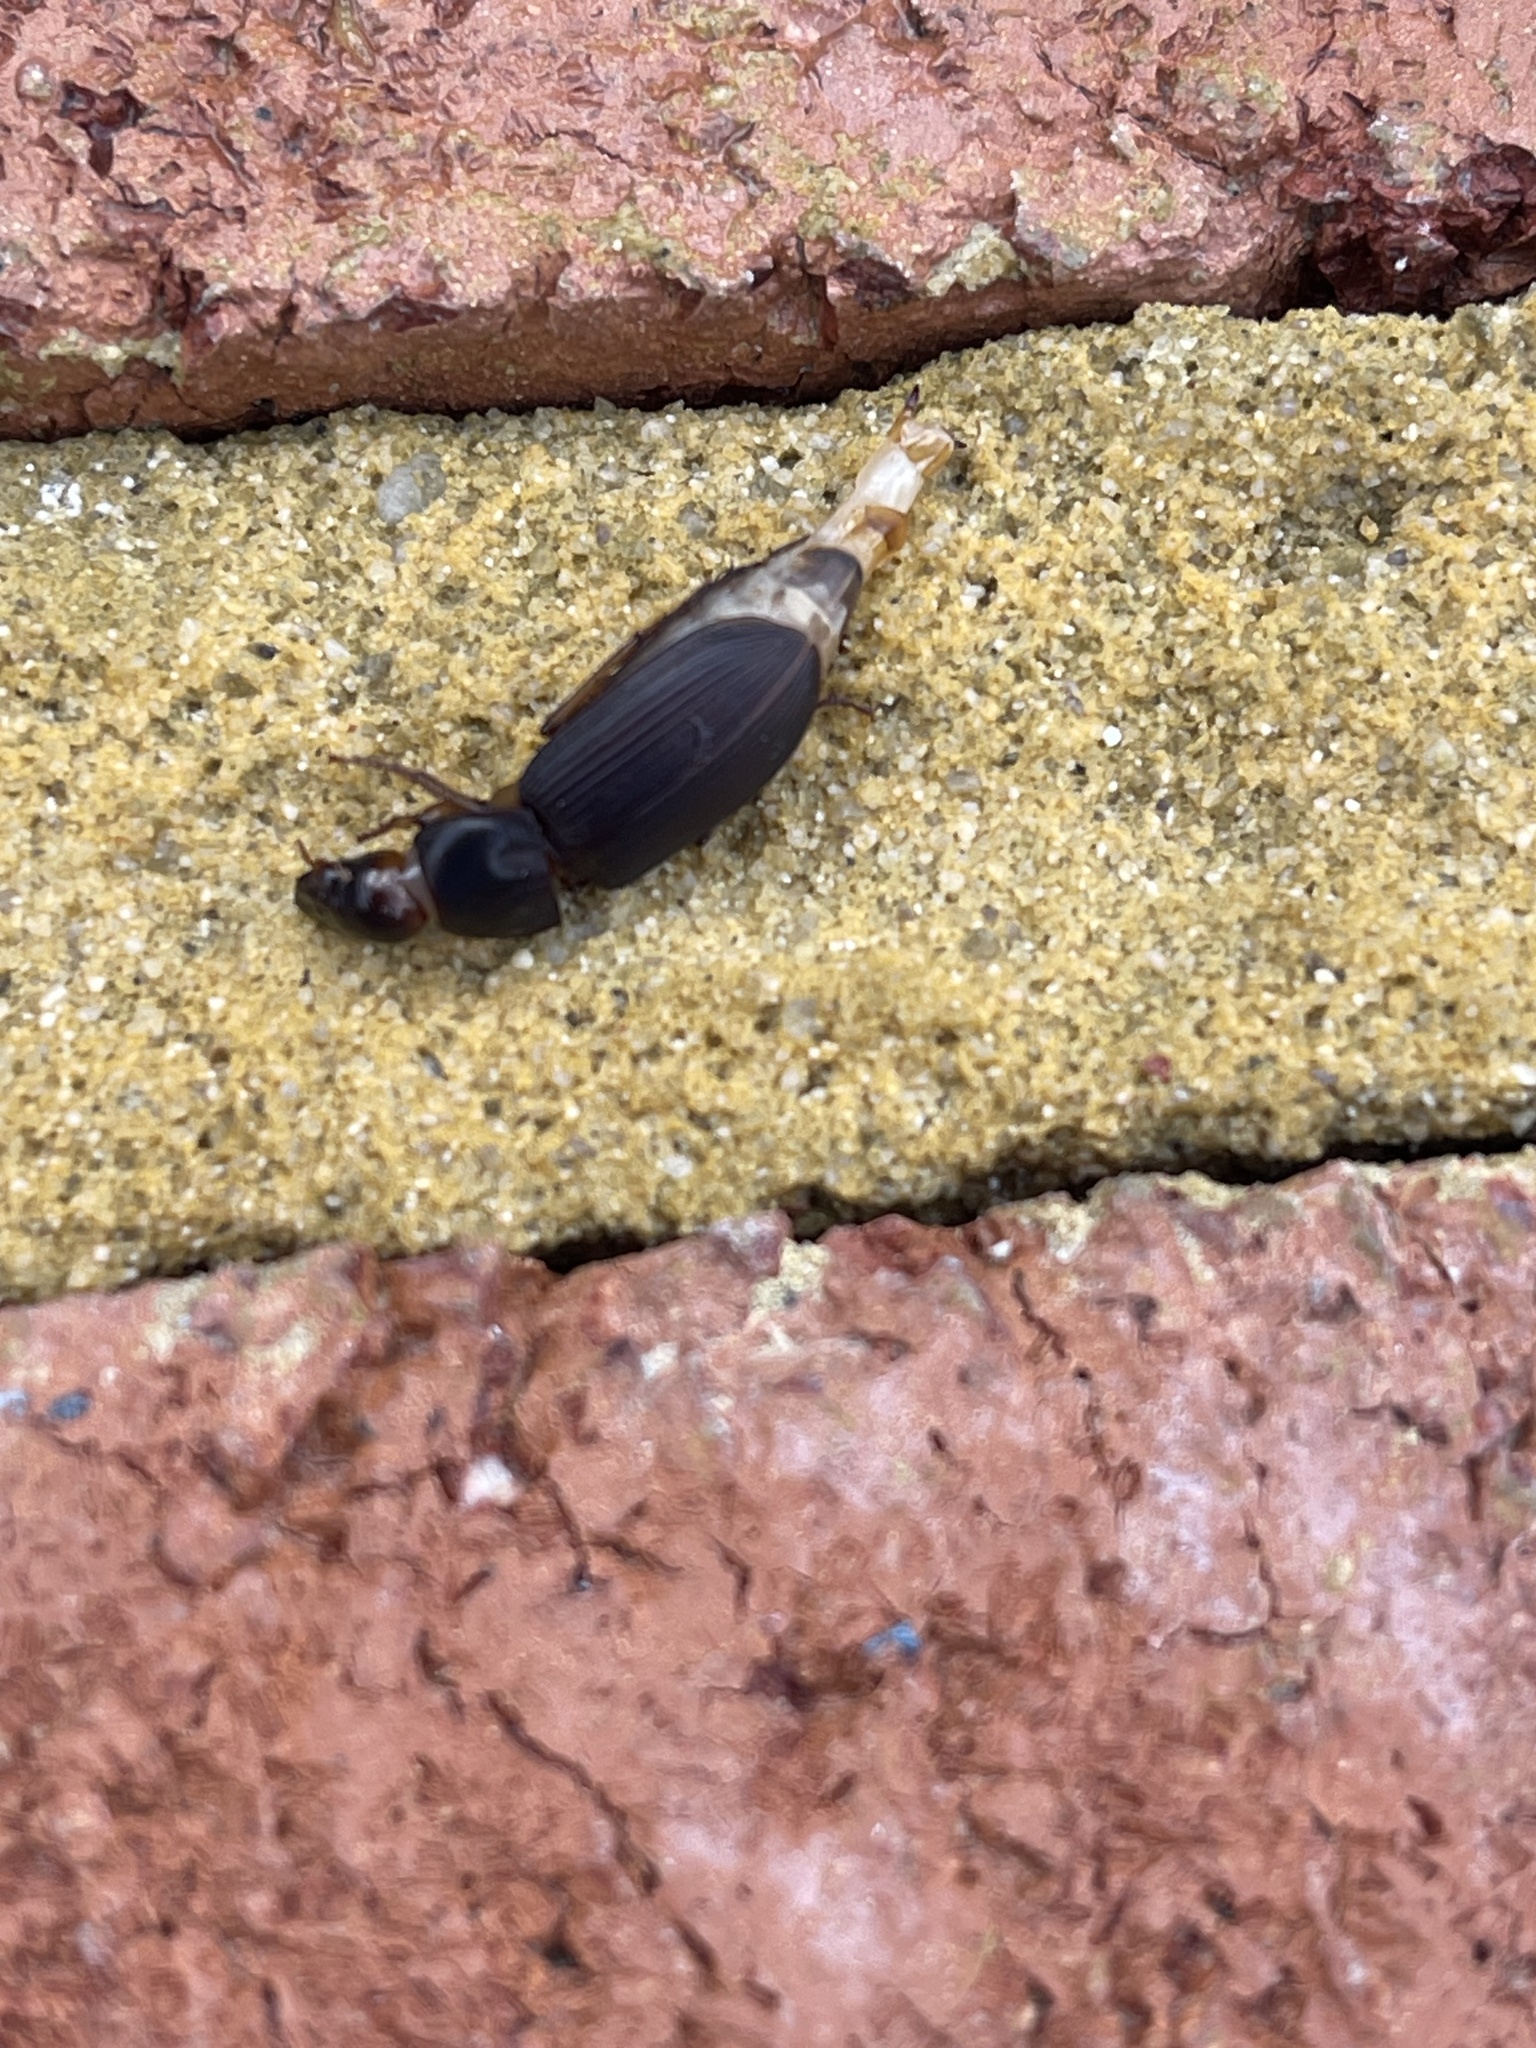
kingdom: Animalia
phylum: Arthropoda
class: Insecta
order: Coleoptera
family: Carabidae
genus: Harpalus
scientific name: Harpalus pensylvanicus
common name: Pennsylvania dingy ground beetle
